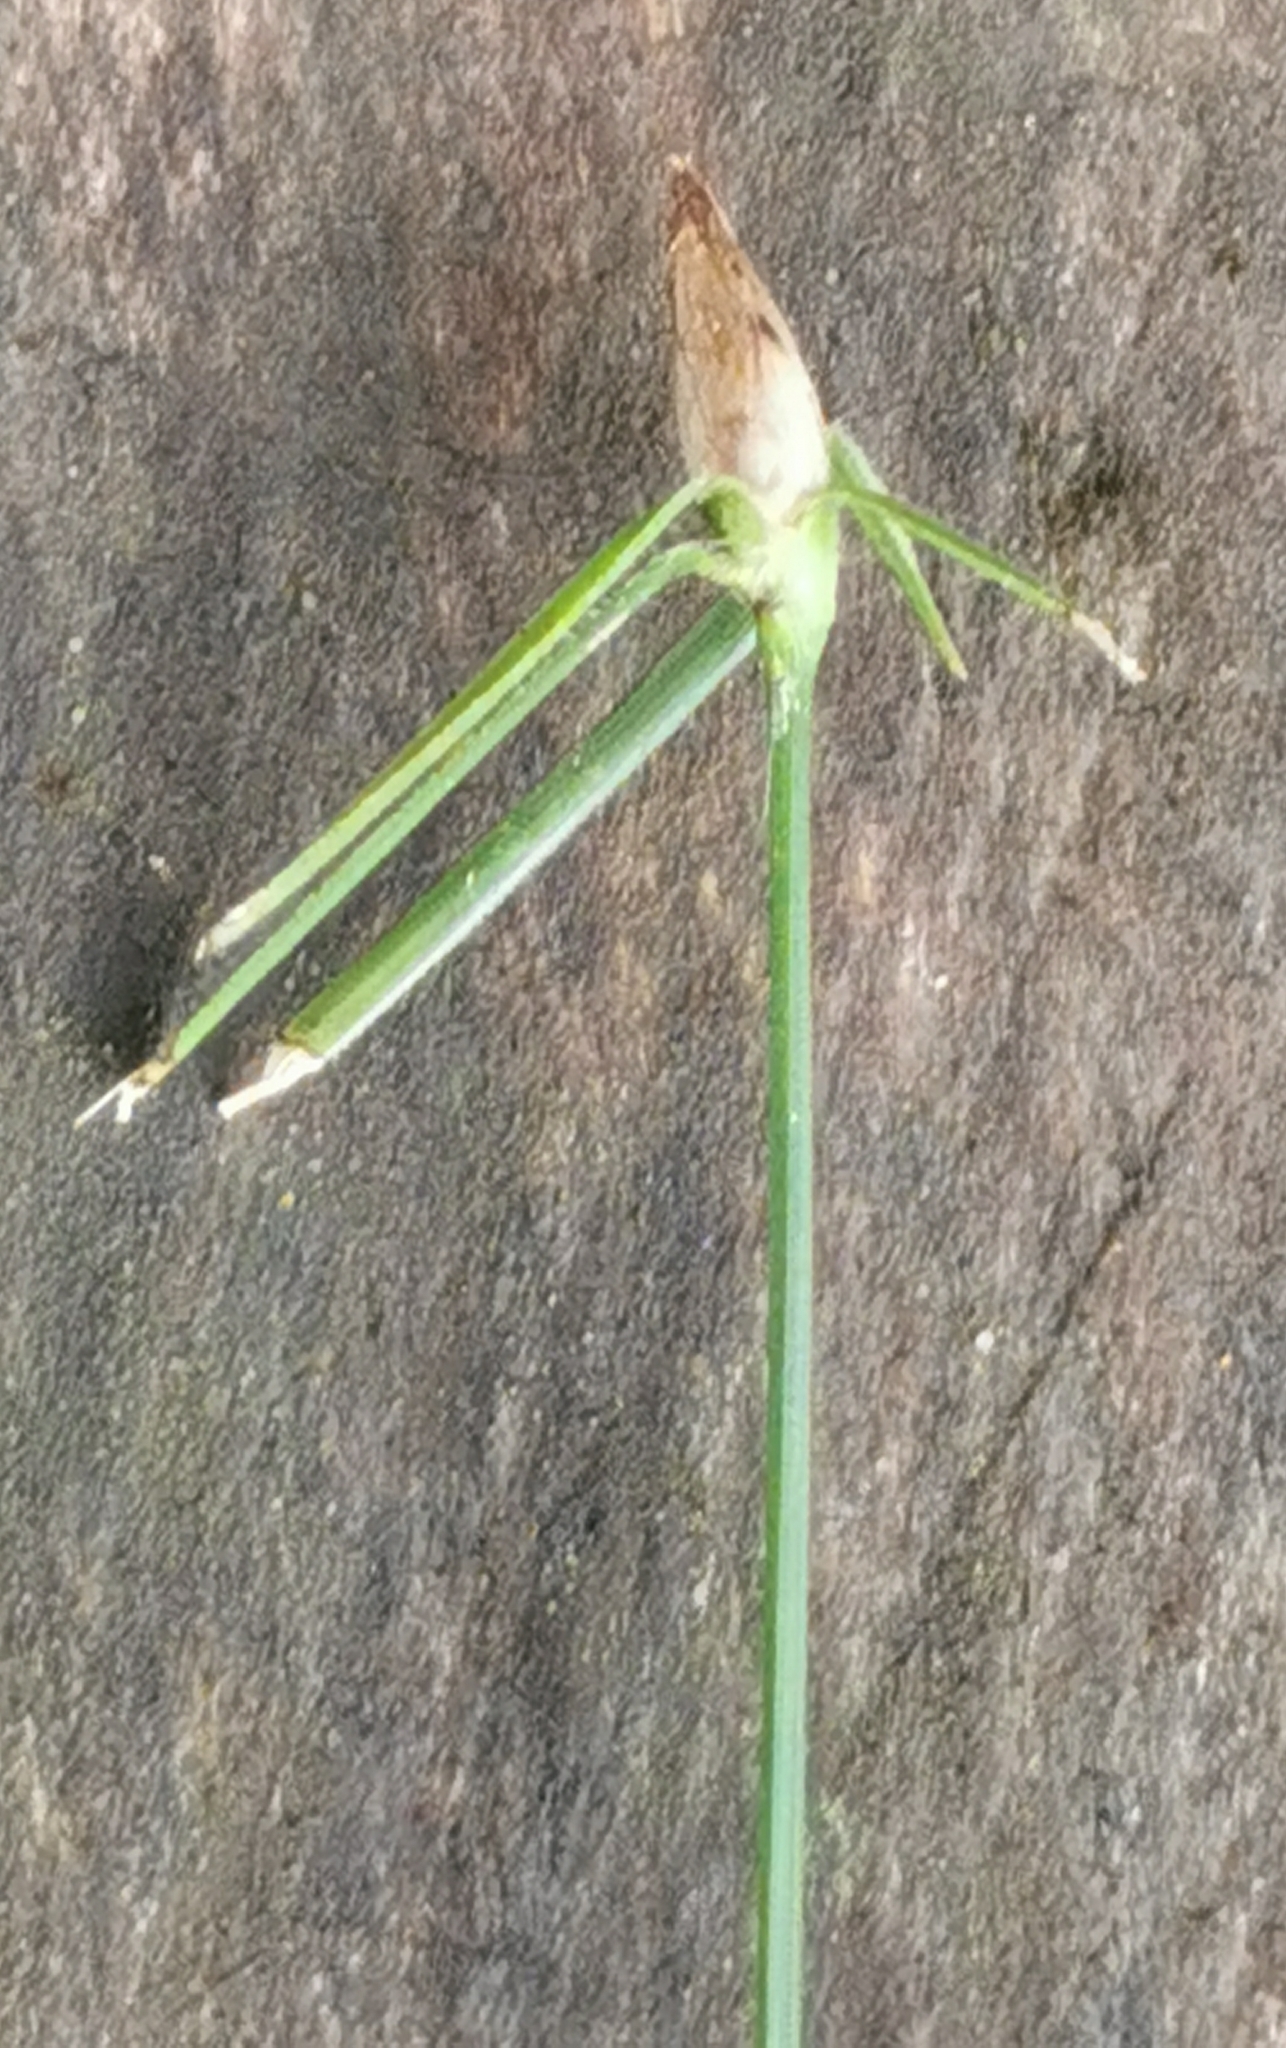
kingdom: Plantae
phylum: Tracheophyta
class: Liliopsida
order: Poales
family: Cyperaceae
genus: Rhynchospora
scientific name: Rhynchospora radicans
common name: Tropical whitetop
